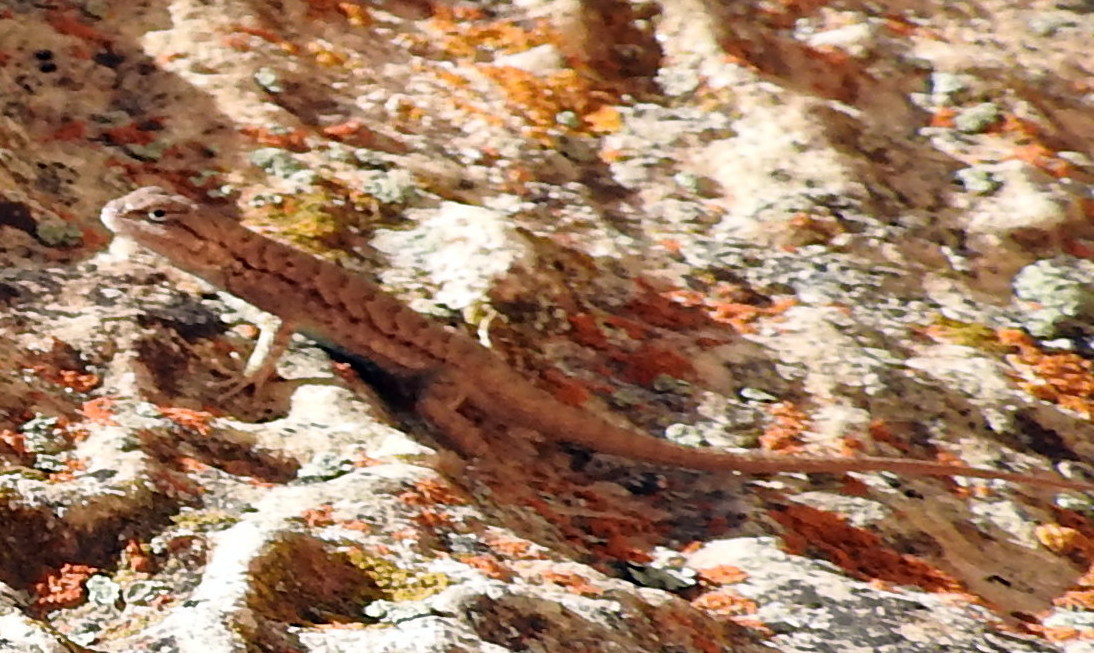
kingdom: Animalia
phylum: Chordata
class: Squamata
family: Phrynosomatidae
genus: Sceloporus
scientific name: Sceloporus tristichus
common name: Plateau fence lizard
